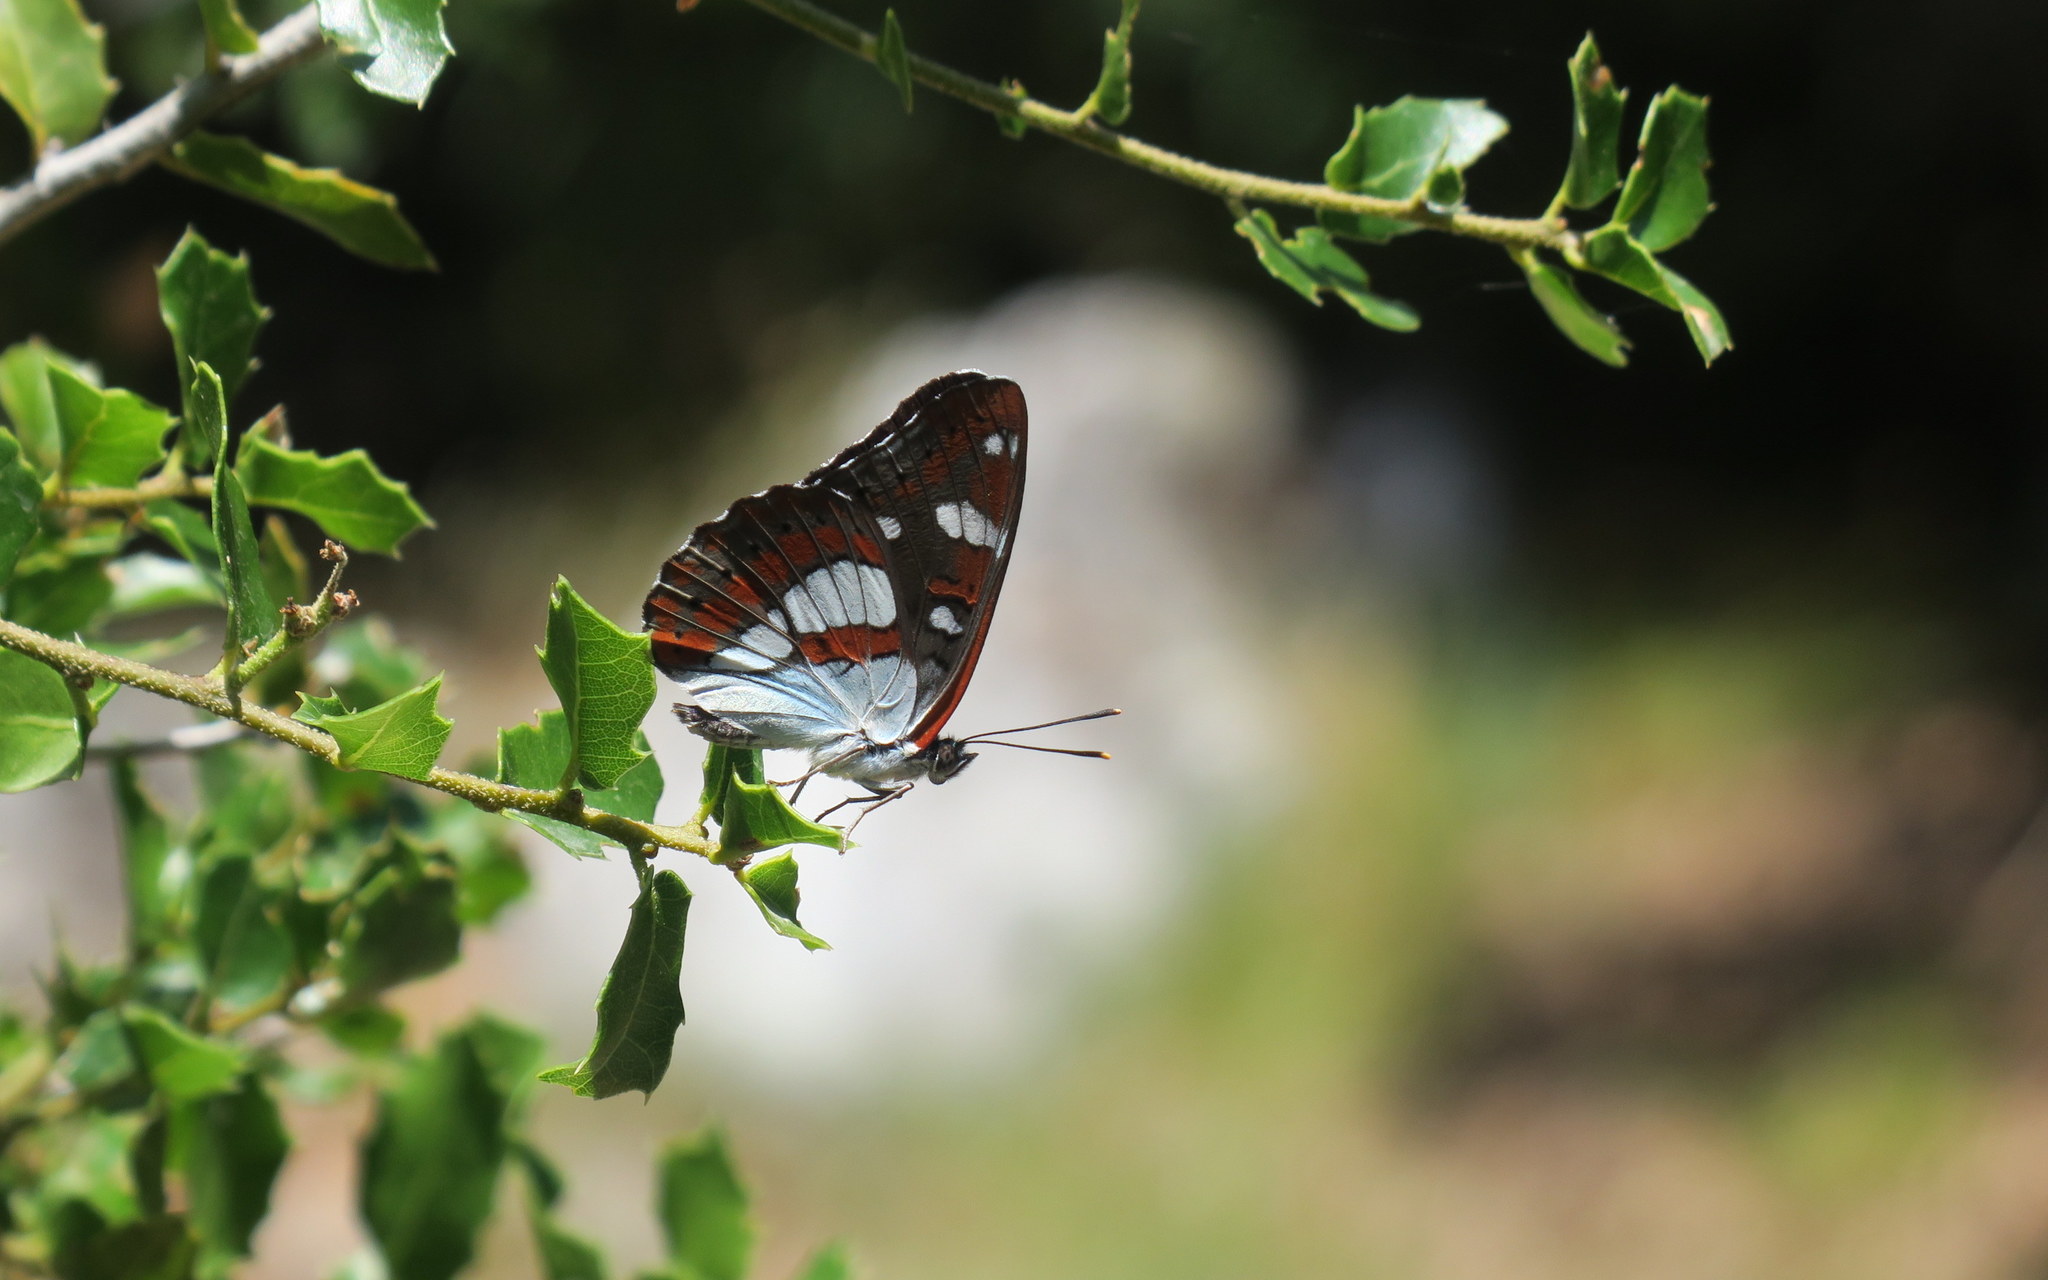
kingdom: Animalia
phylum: Arthropoda
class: Insecta
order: Lepidoptera
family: Nymphalidae
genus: Limenitis
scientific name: Limenitis reducta
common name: Southern white admiral
